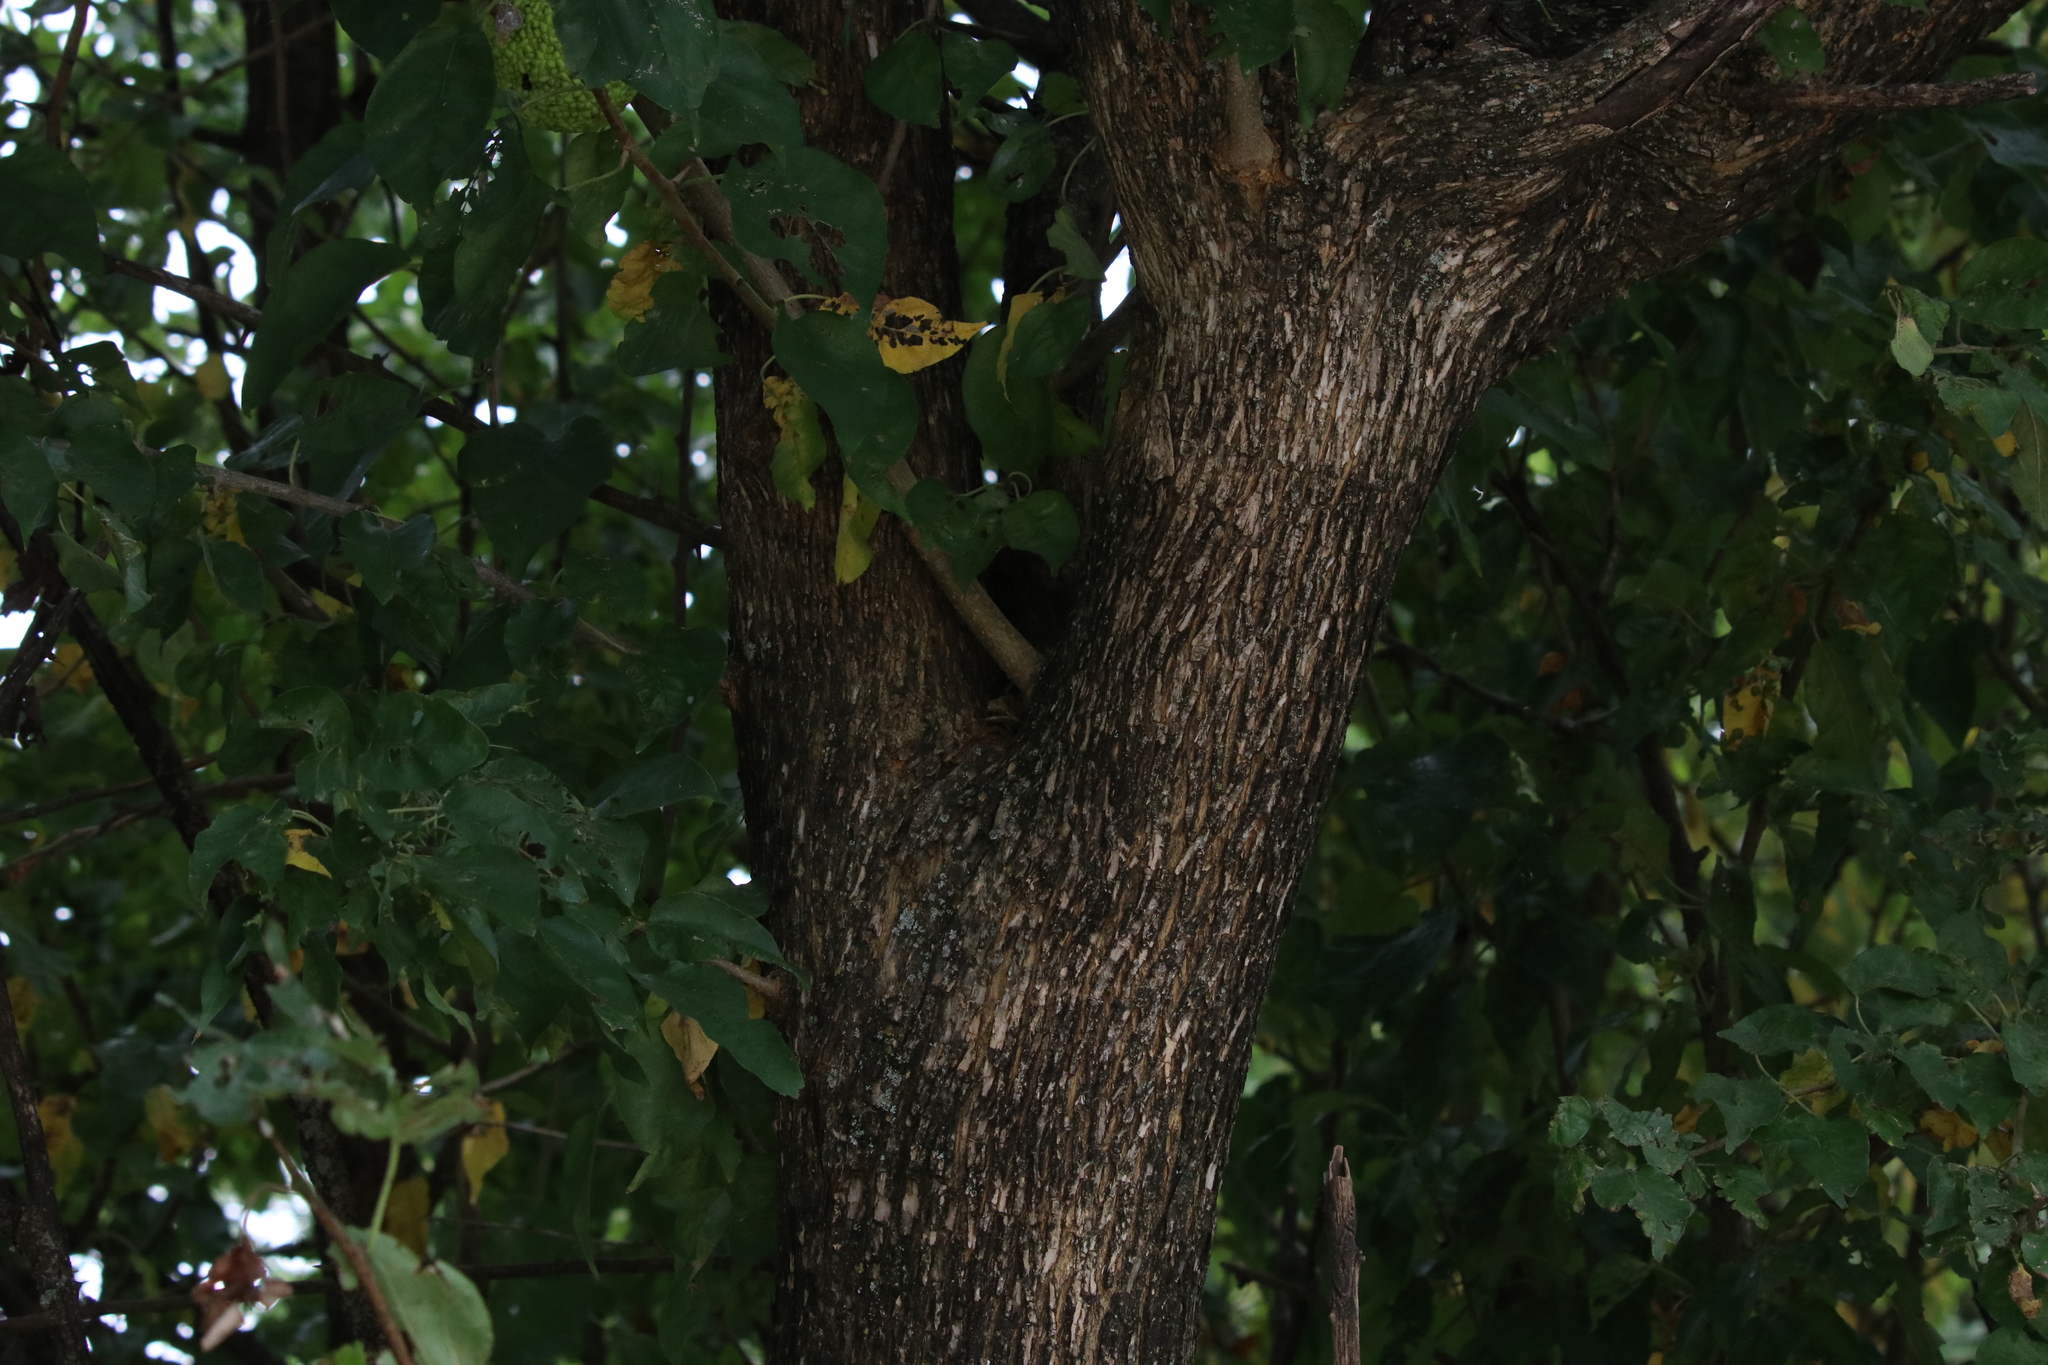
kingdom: Plantae
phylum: Tracheophyta
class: Magnoliopsida
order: Rosales
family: Moraceae
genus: Maclura
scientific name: Maclura pomifera
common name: Osage-orange
